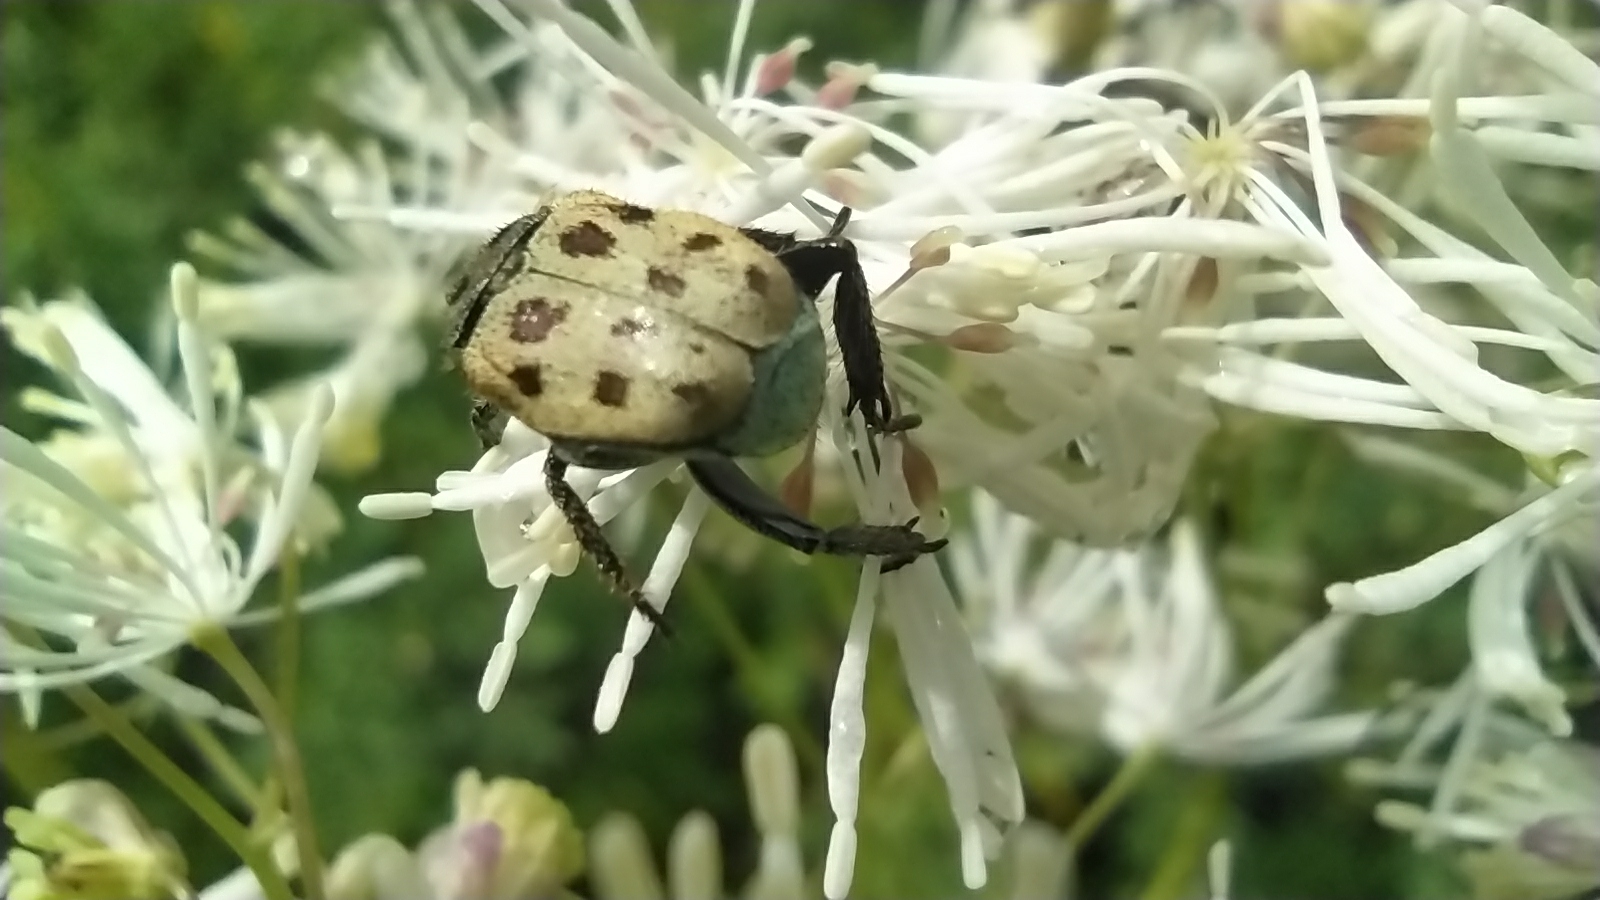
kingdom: Animalia
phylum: Arthropoda
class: Insecta
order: Coleoptera
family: Scarabaeidae
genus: Hoplia
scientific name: Hoplia aureola
